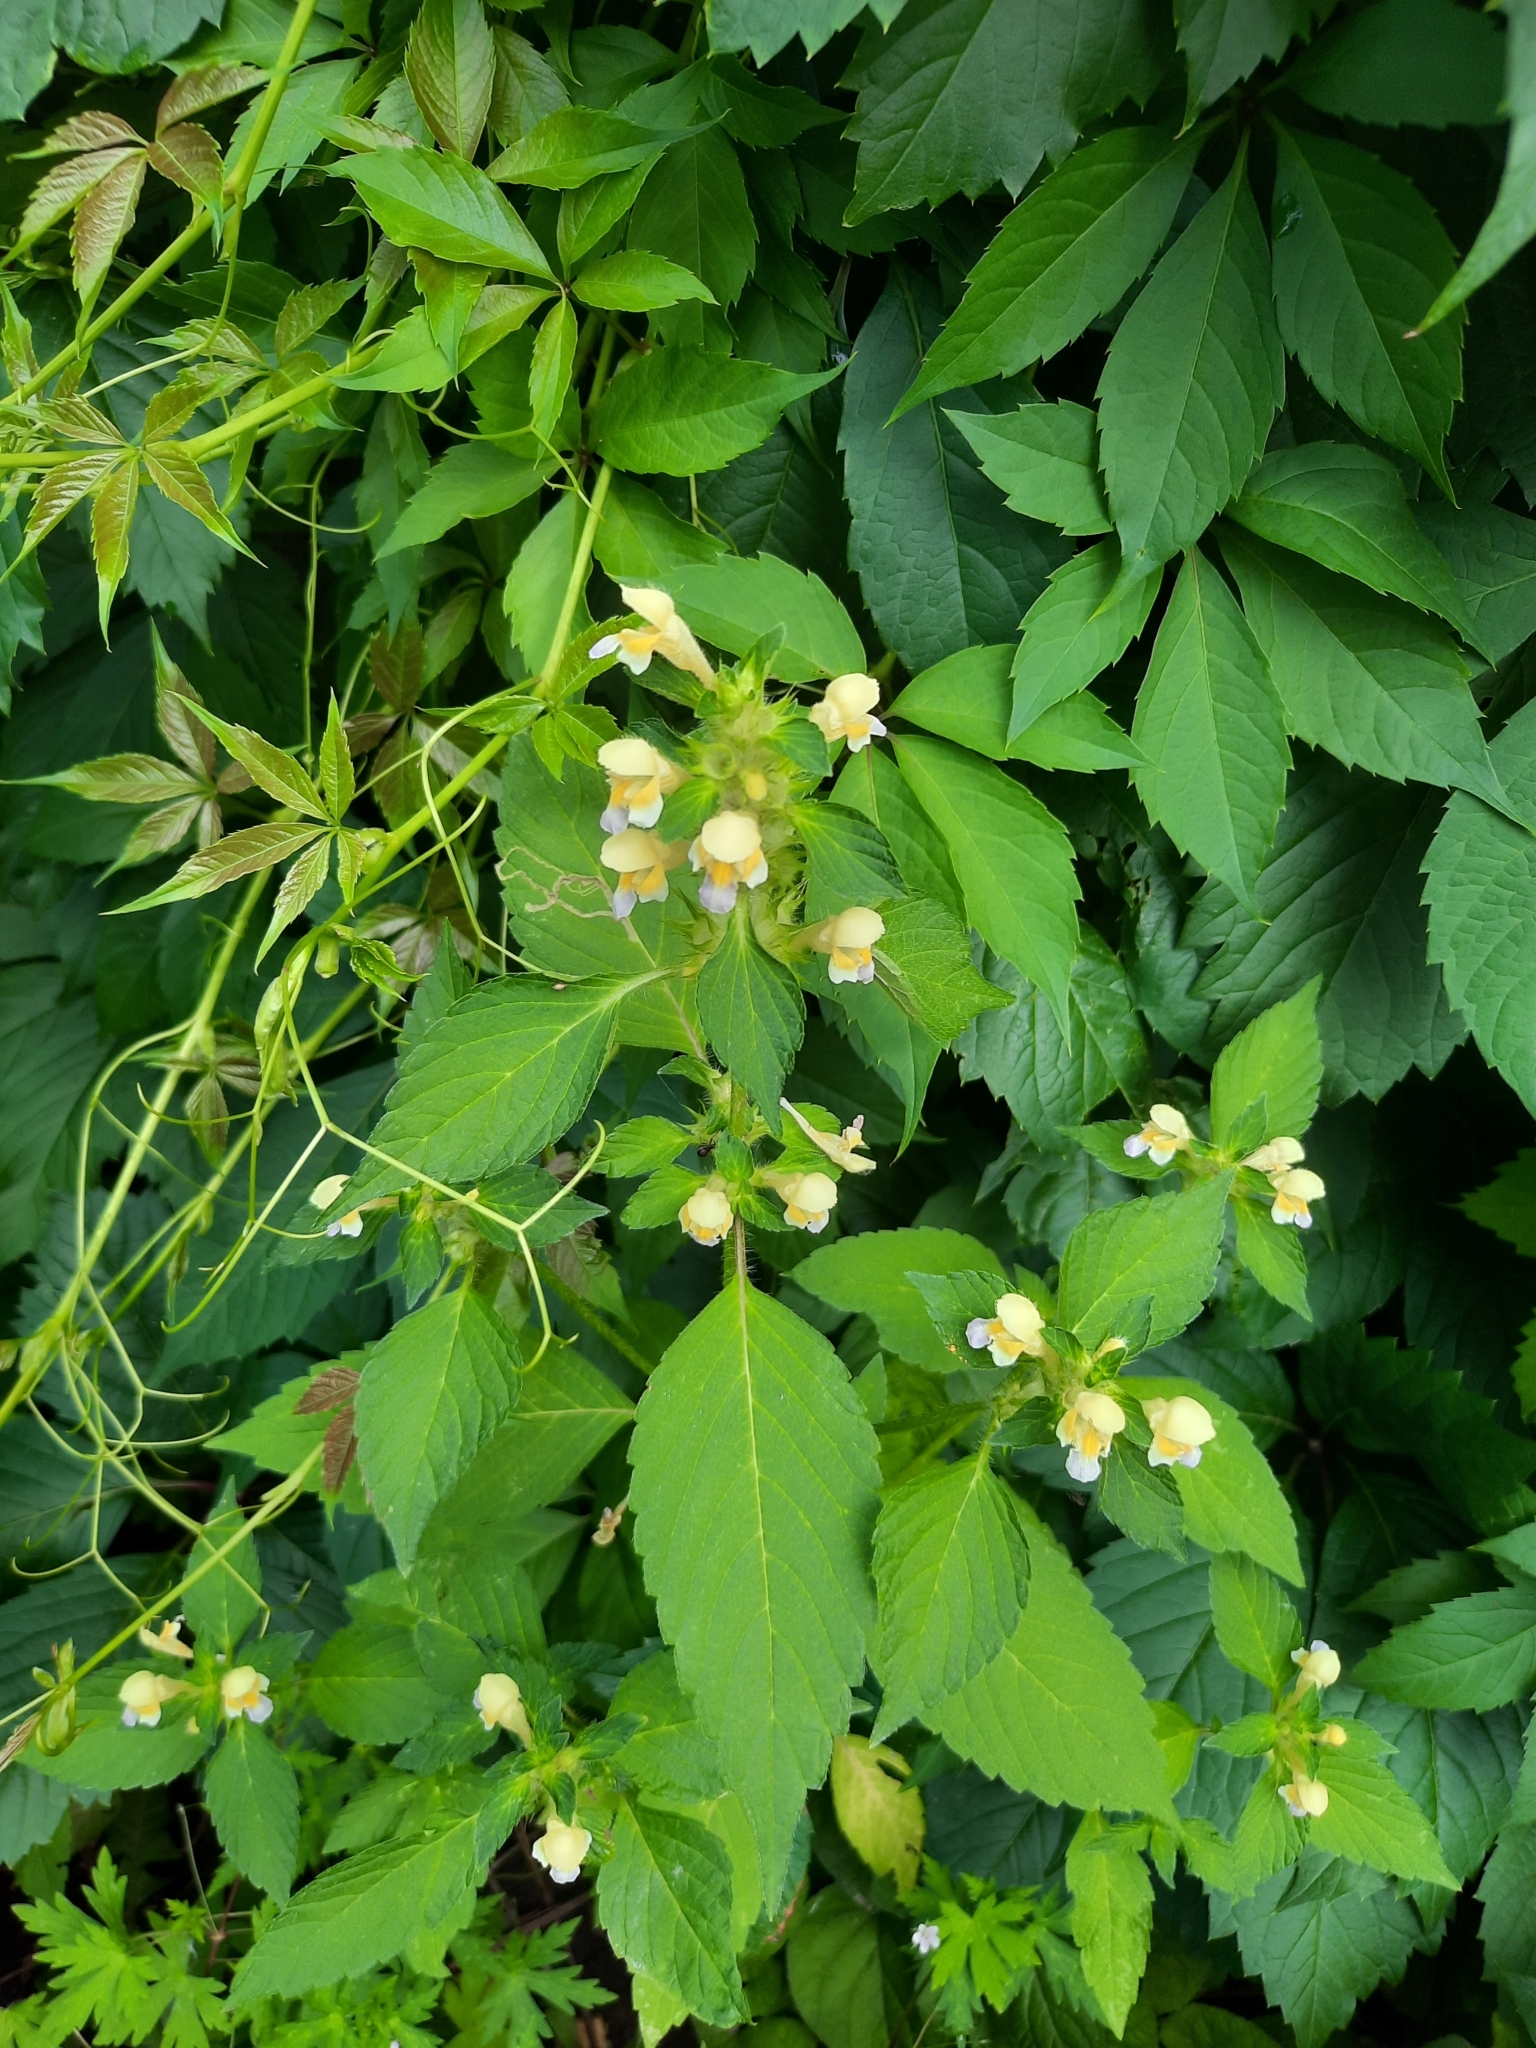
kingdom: Plantae
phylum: Tracheophyta
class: Magnoliopsida
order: Lamiales
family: Lamiaceae
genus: Galeopsis
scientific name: Galeopsis speciosa
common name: Large-flowered hemp-nettle
